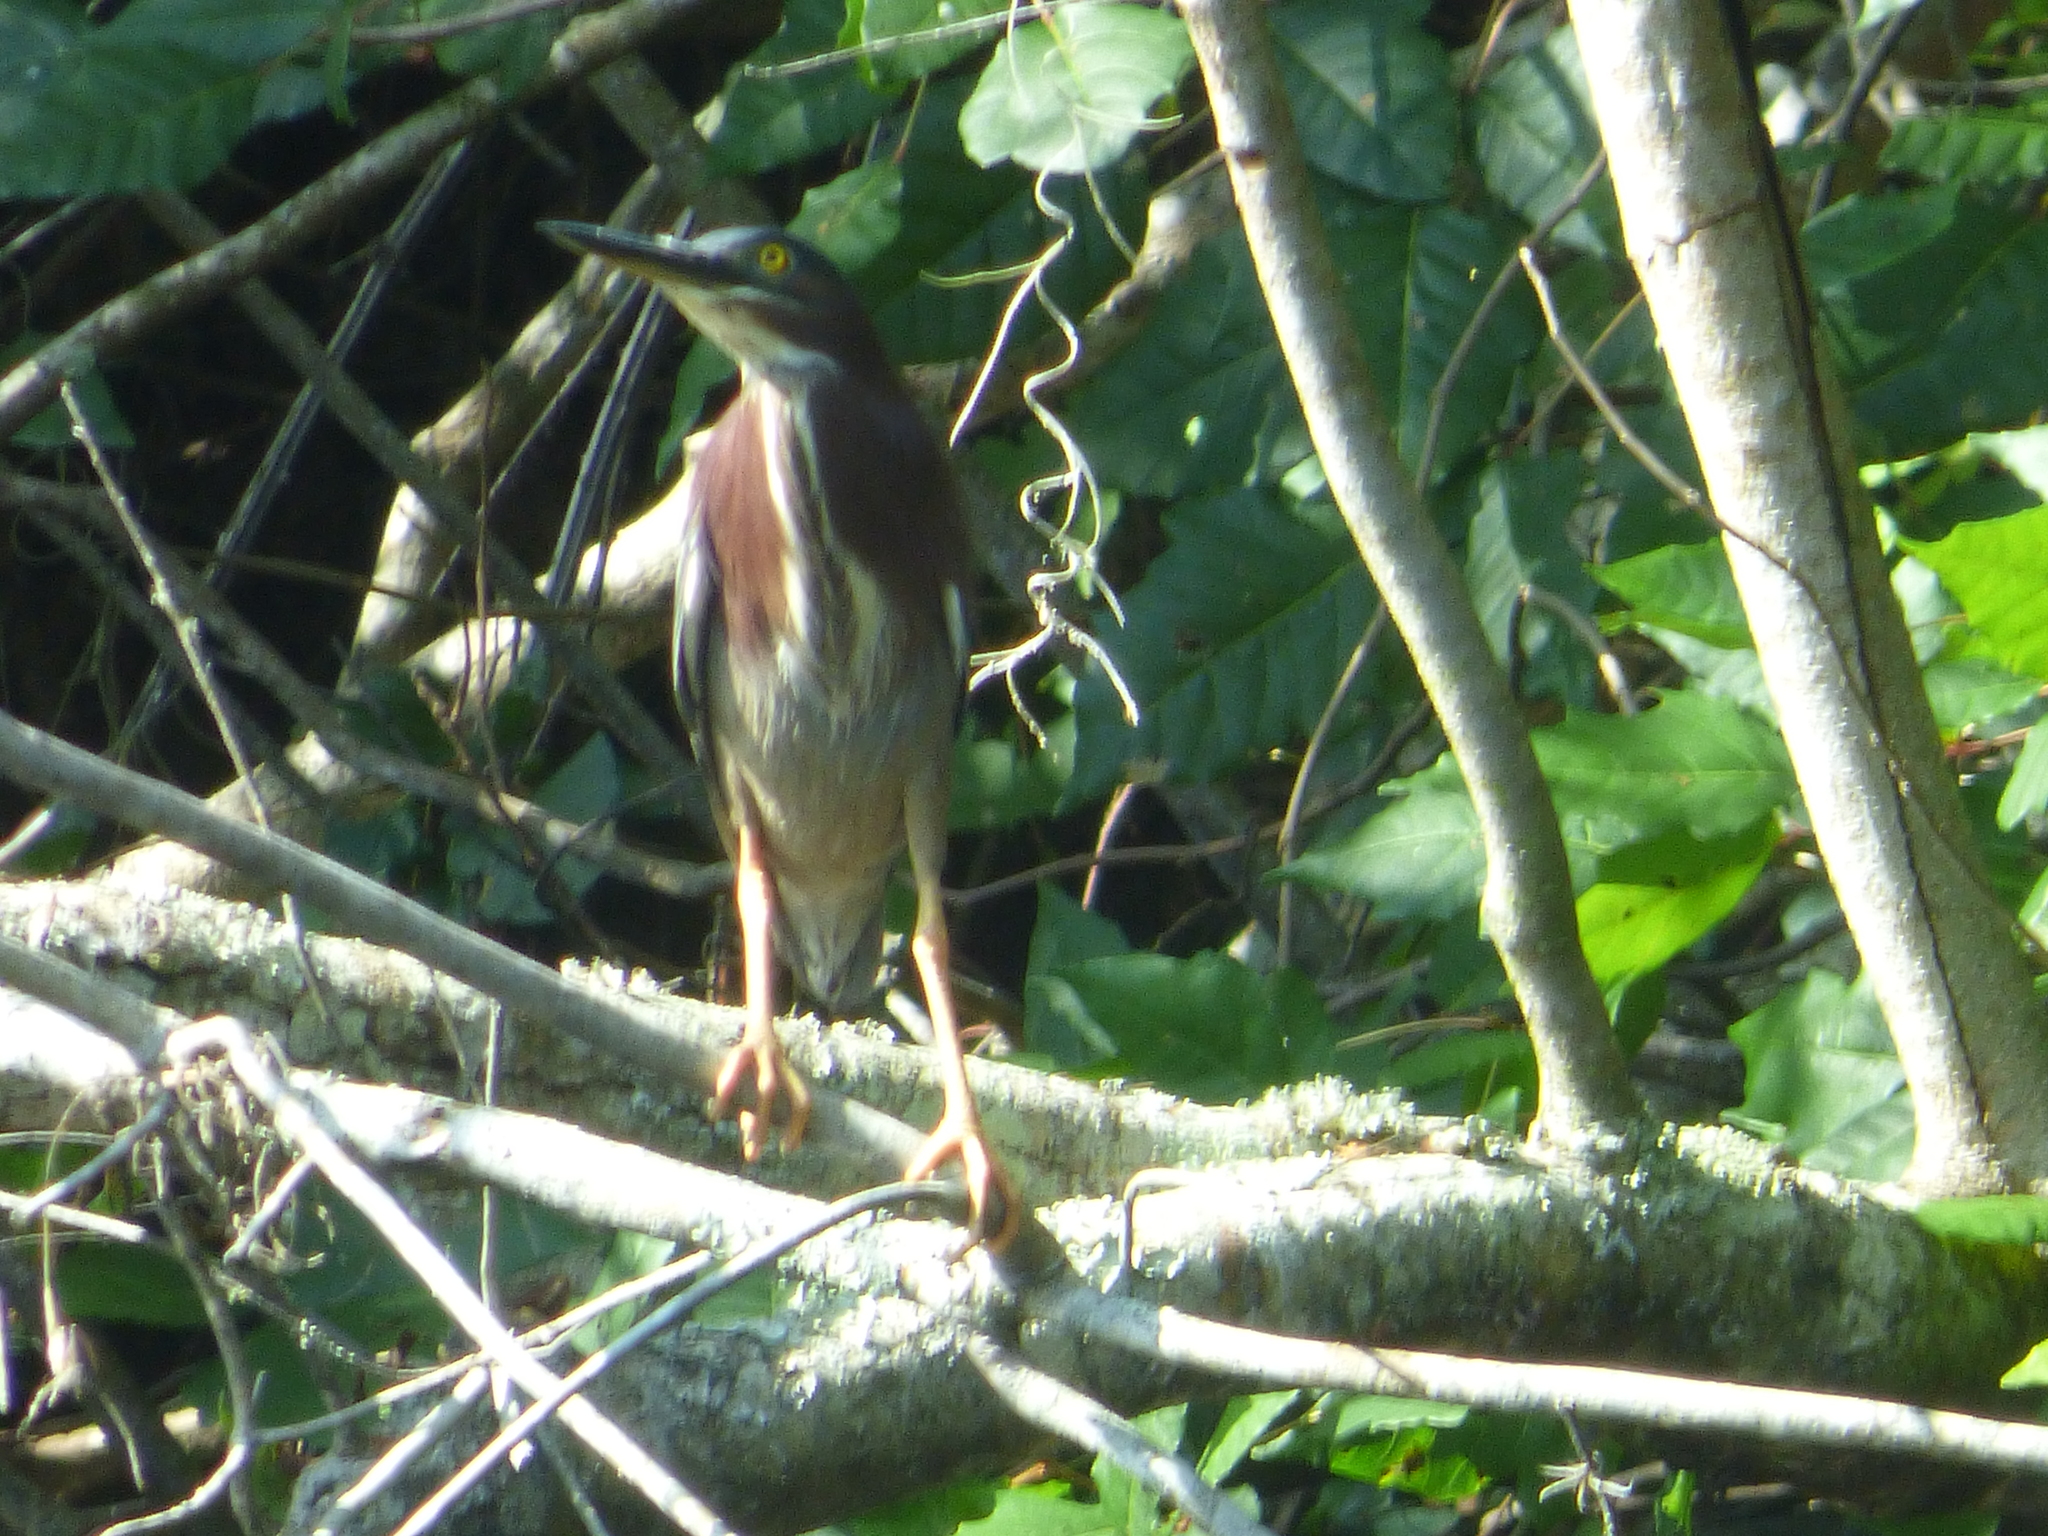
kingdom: Animalia
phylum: Chordata
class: Aves
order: Pelecaniformes
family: Ardeidae
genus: Butorides
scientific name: Butorides virescens
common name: Green heron
